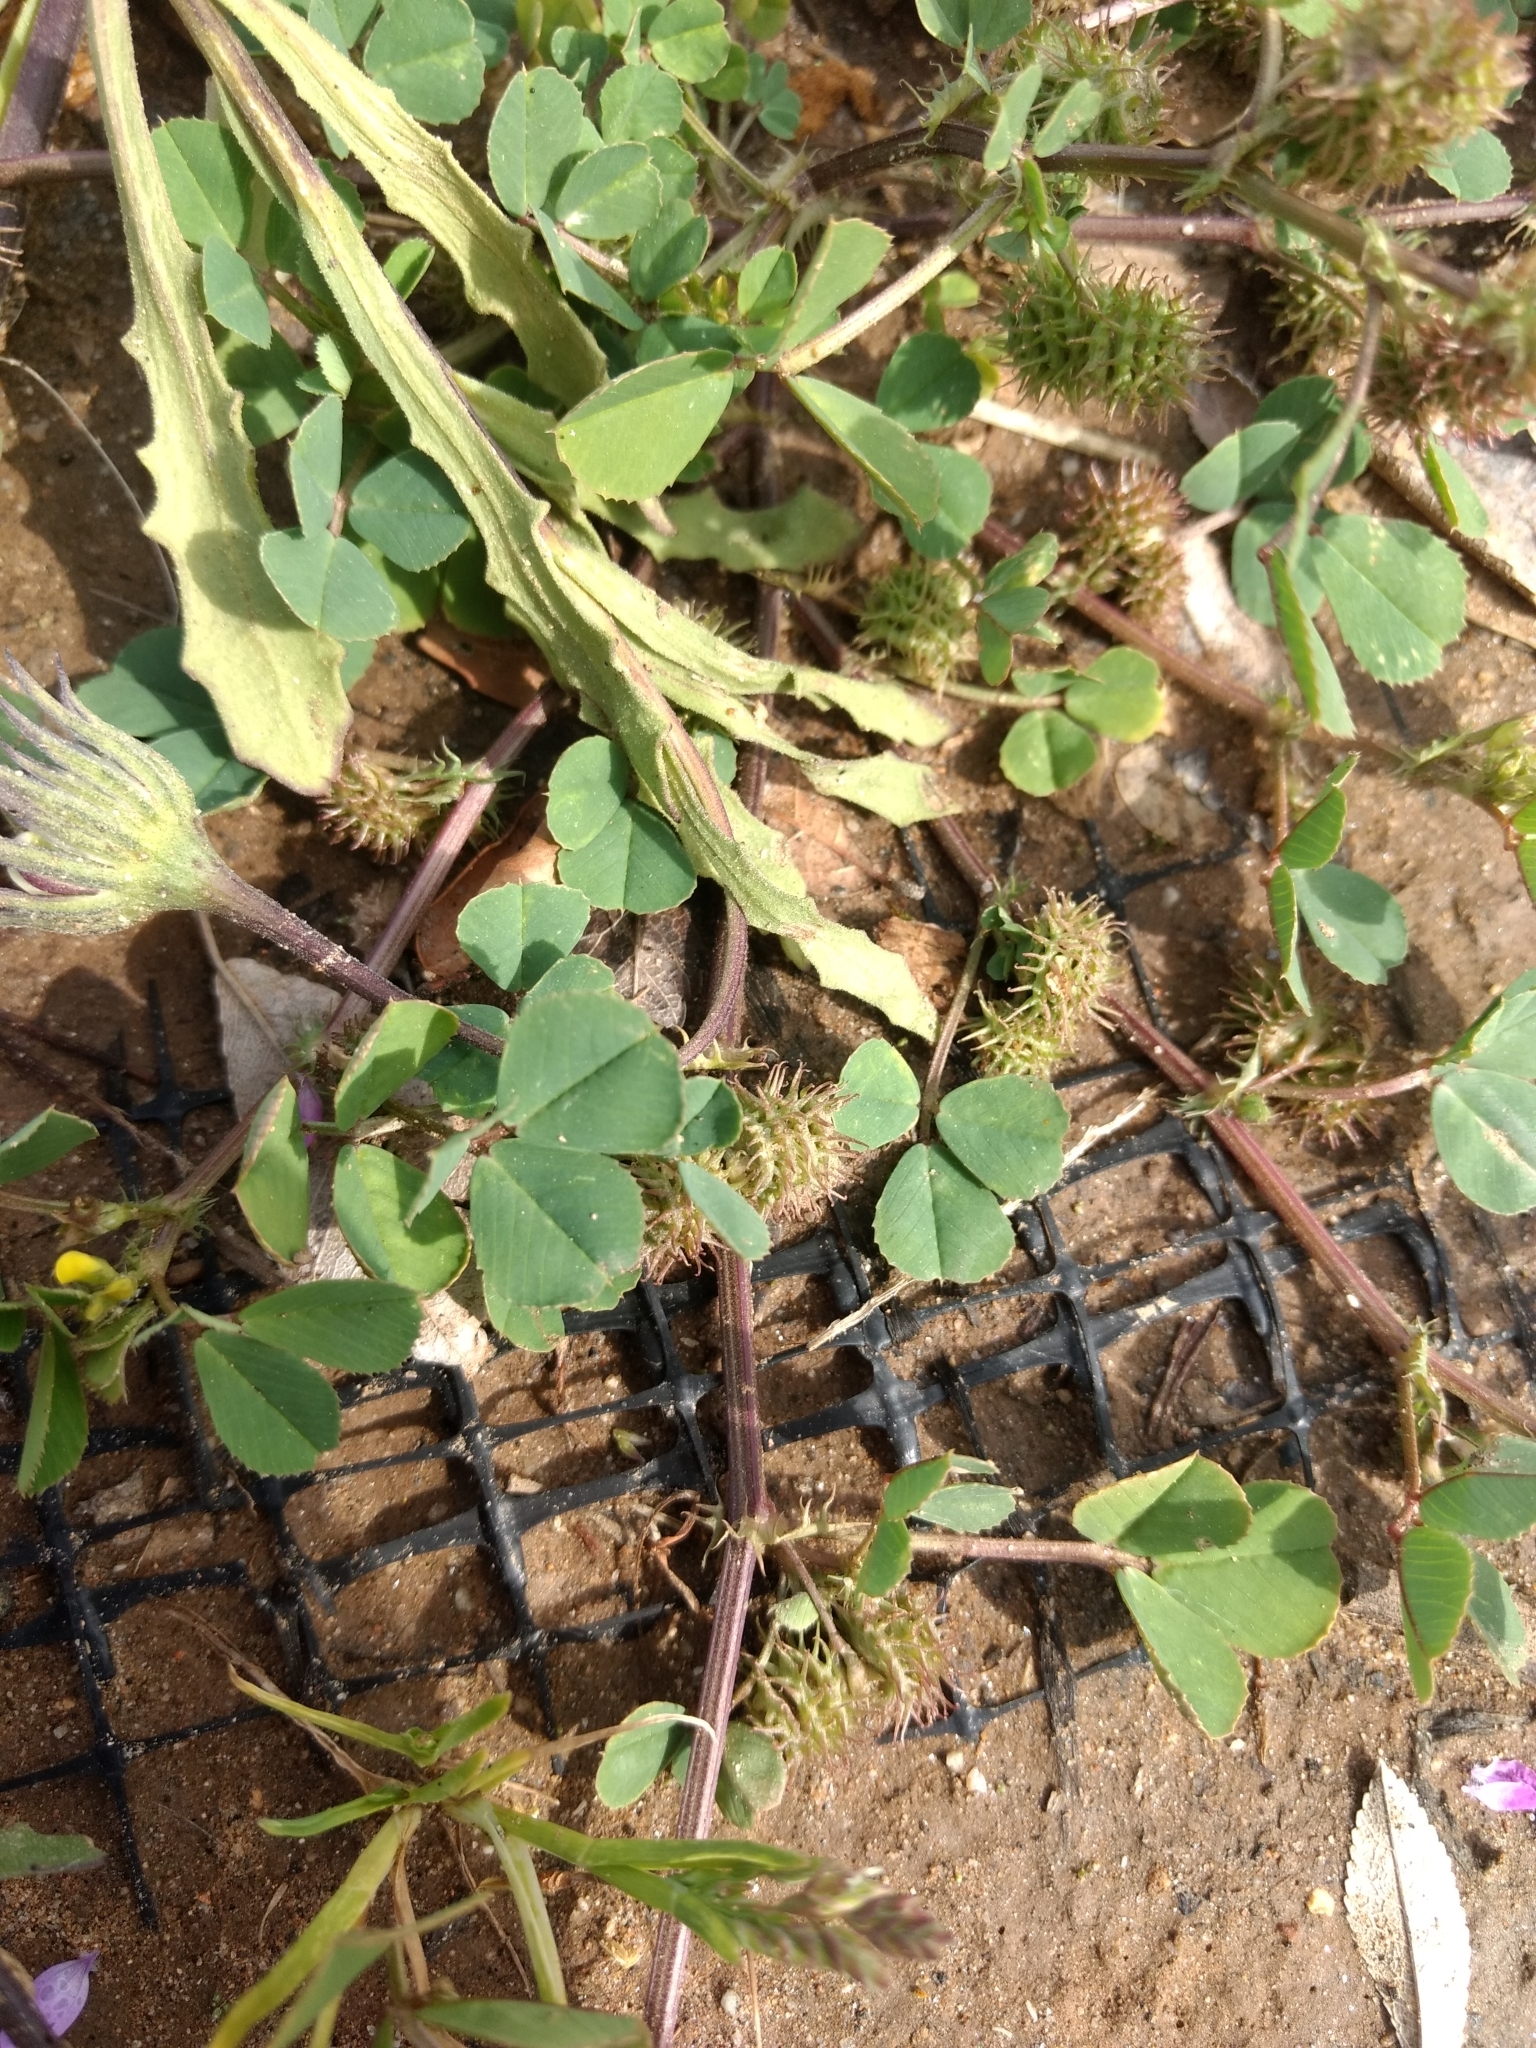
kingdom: Plantae
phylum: Tracheophyta
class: Magnoliopsida
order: Fabales
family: Fabaceae
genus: Medicago
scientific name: Medicago polymorpha
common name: Burclover
